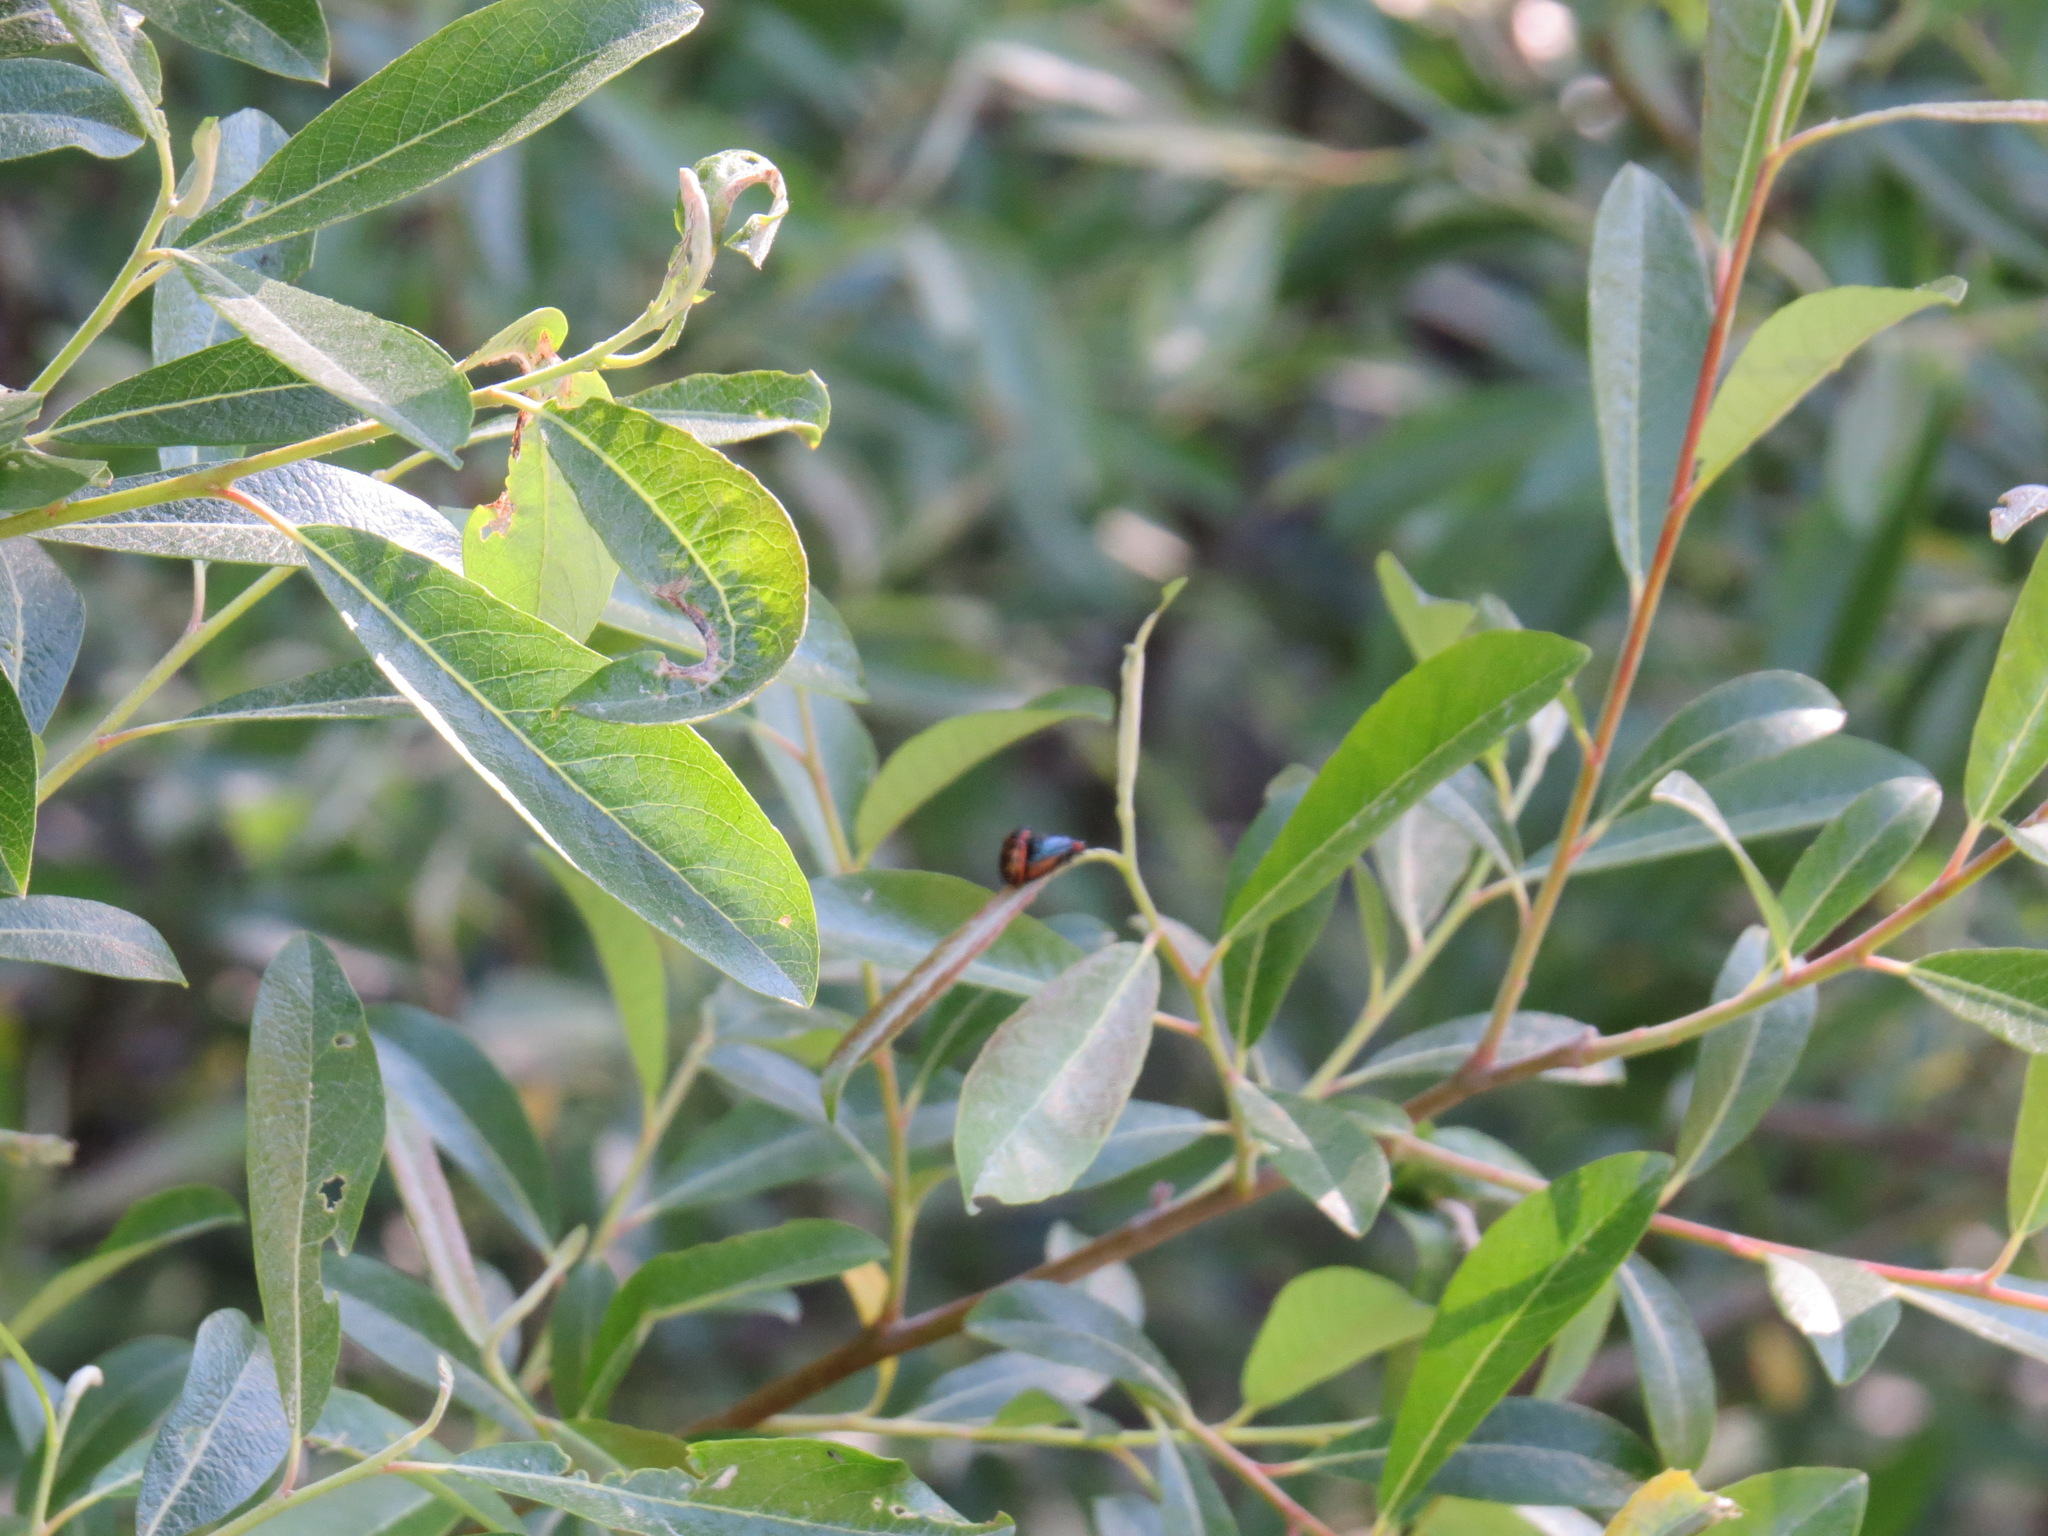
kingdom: Animalia
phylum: Arthropoda
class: Insecta
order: Coleoptera
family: Chrysomelidae
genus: Chrysomela
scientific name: Chrysomela confluens
